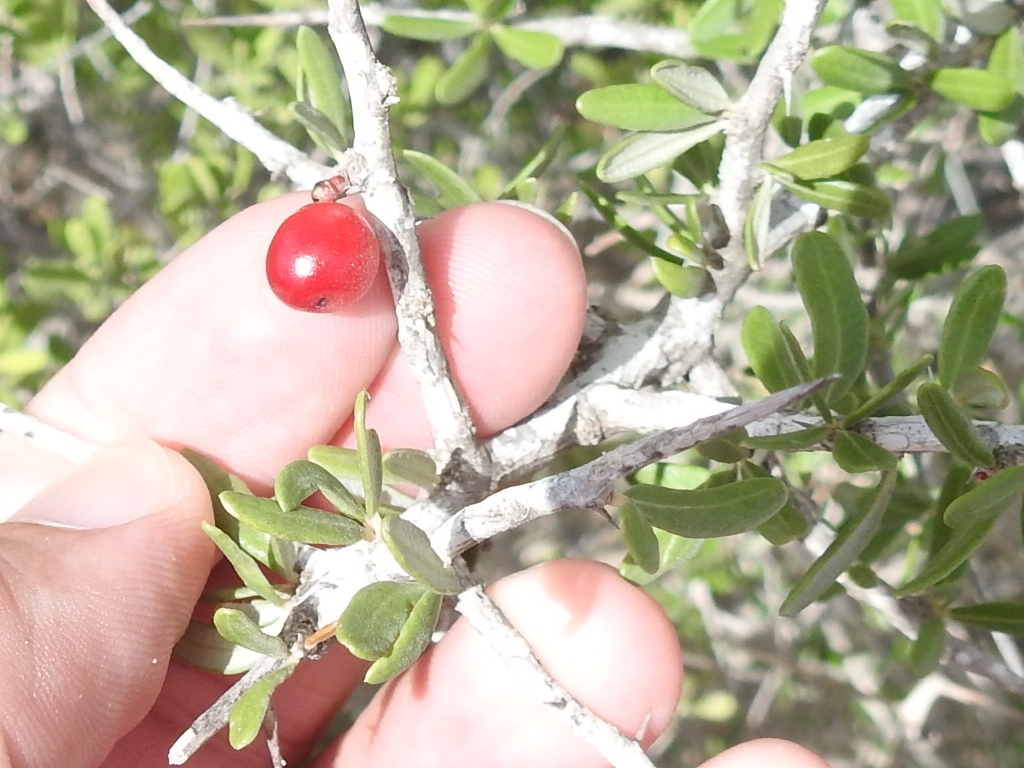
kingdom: Plantae
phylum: Tracheophyta
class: Magnoliopsida
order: Sapindales
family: Simaroubaceae
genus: Castela
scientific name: Castela erecta
